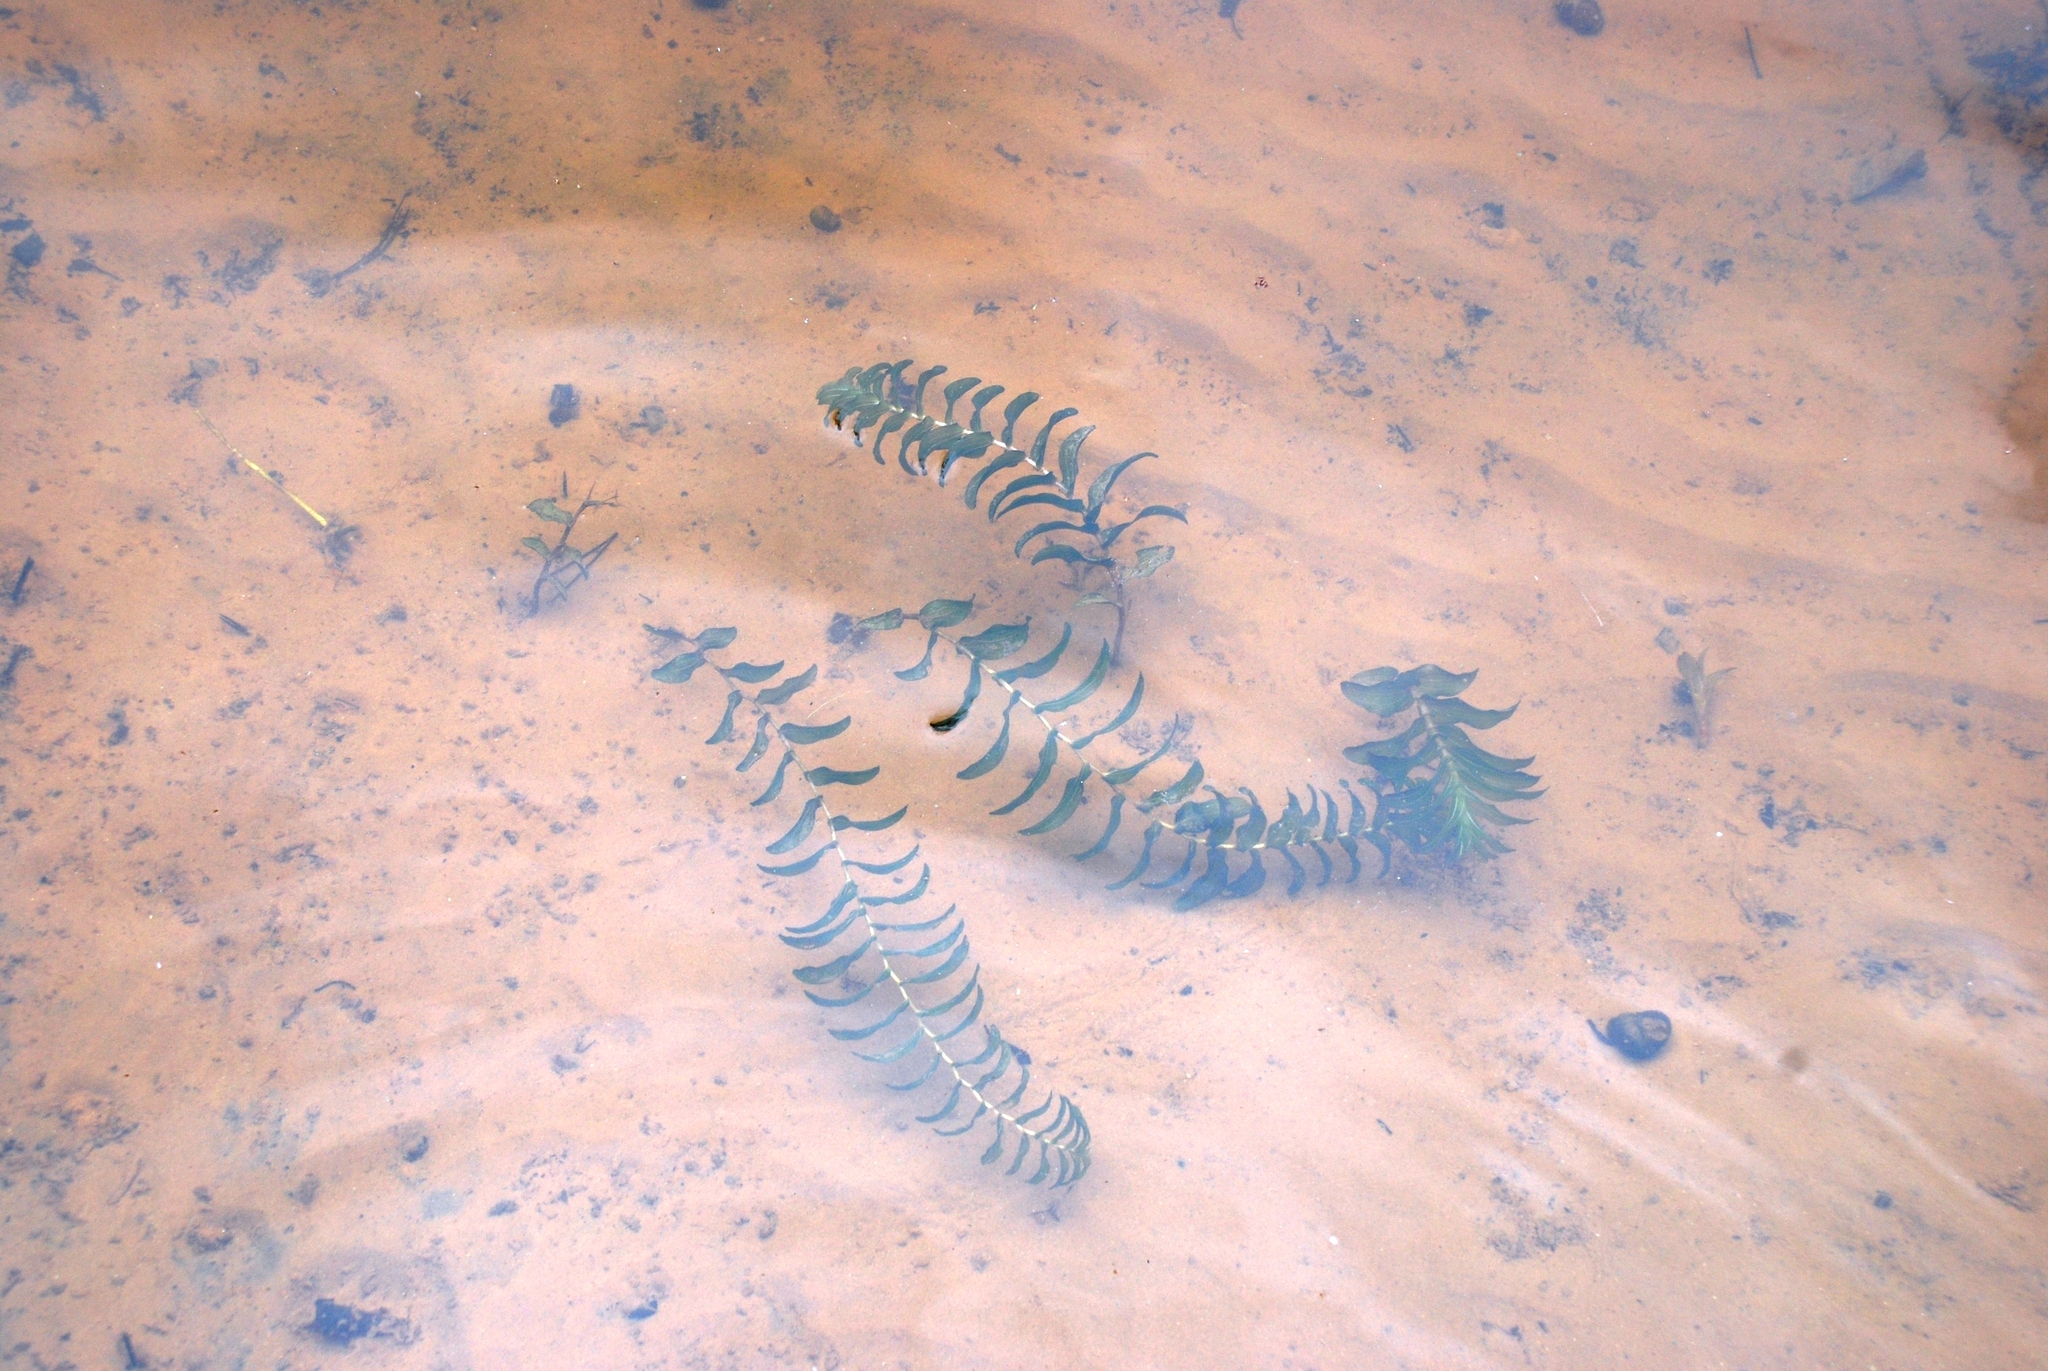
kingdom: Plantae
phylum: Tracheophyta
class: Liliopsida
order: Alismatales
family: Potamogetonaceae
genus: Potamogeton
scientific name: Potamogeton perfoliatus
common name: Perfoliate pondweed
